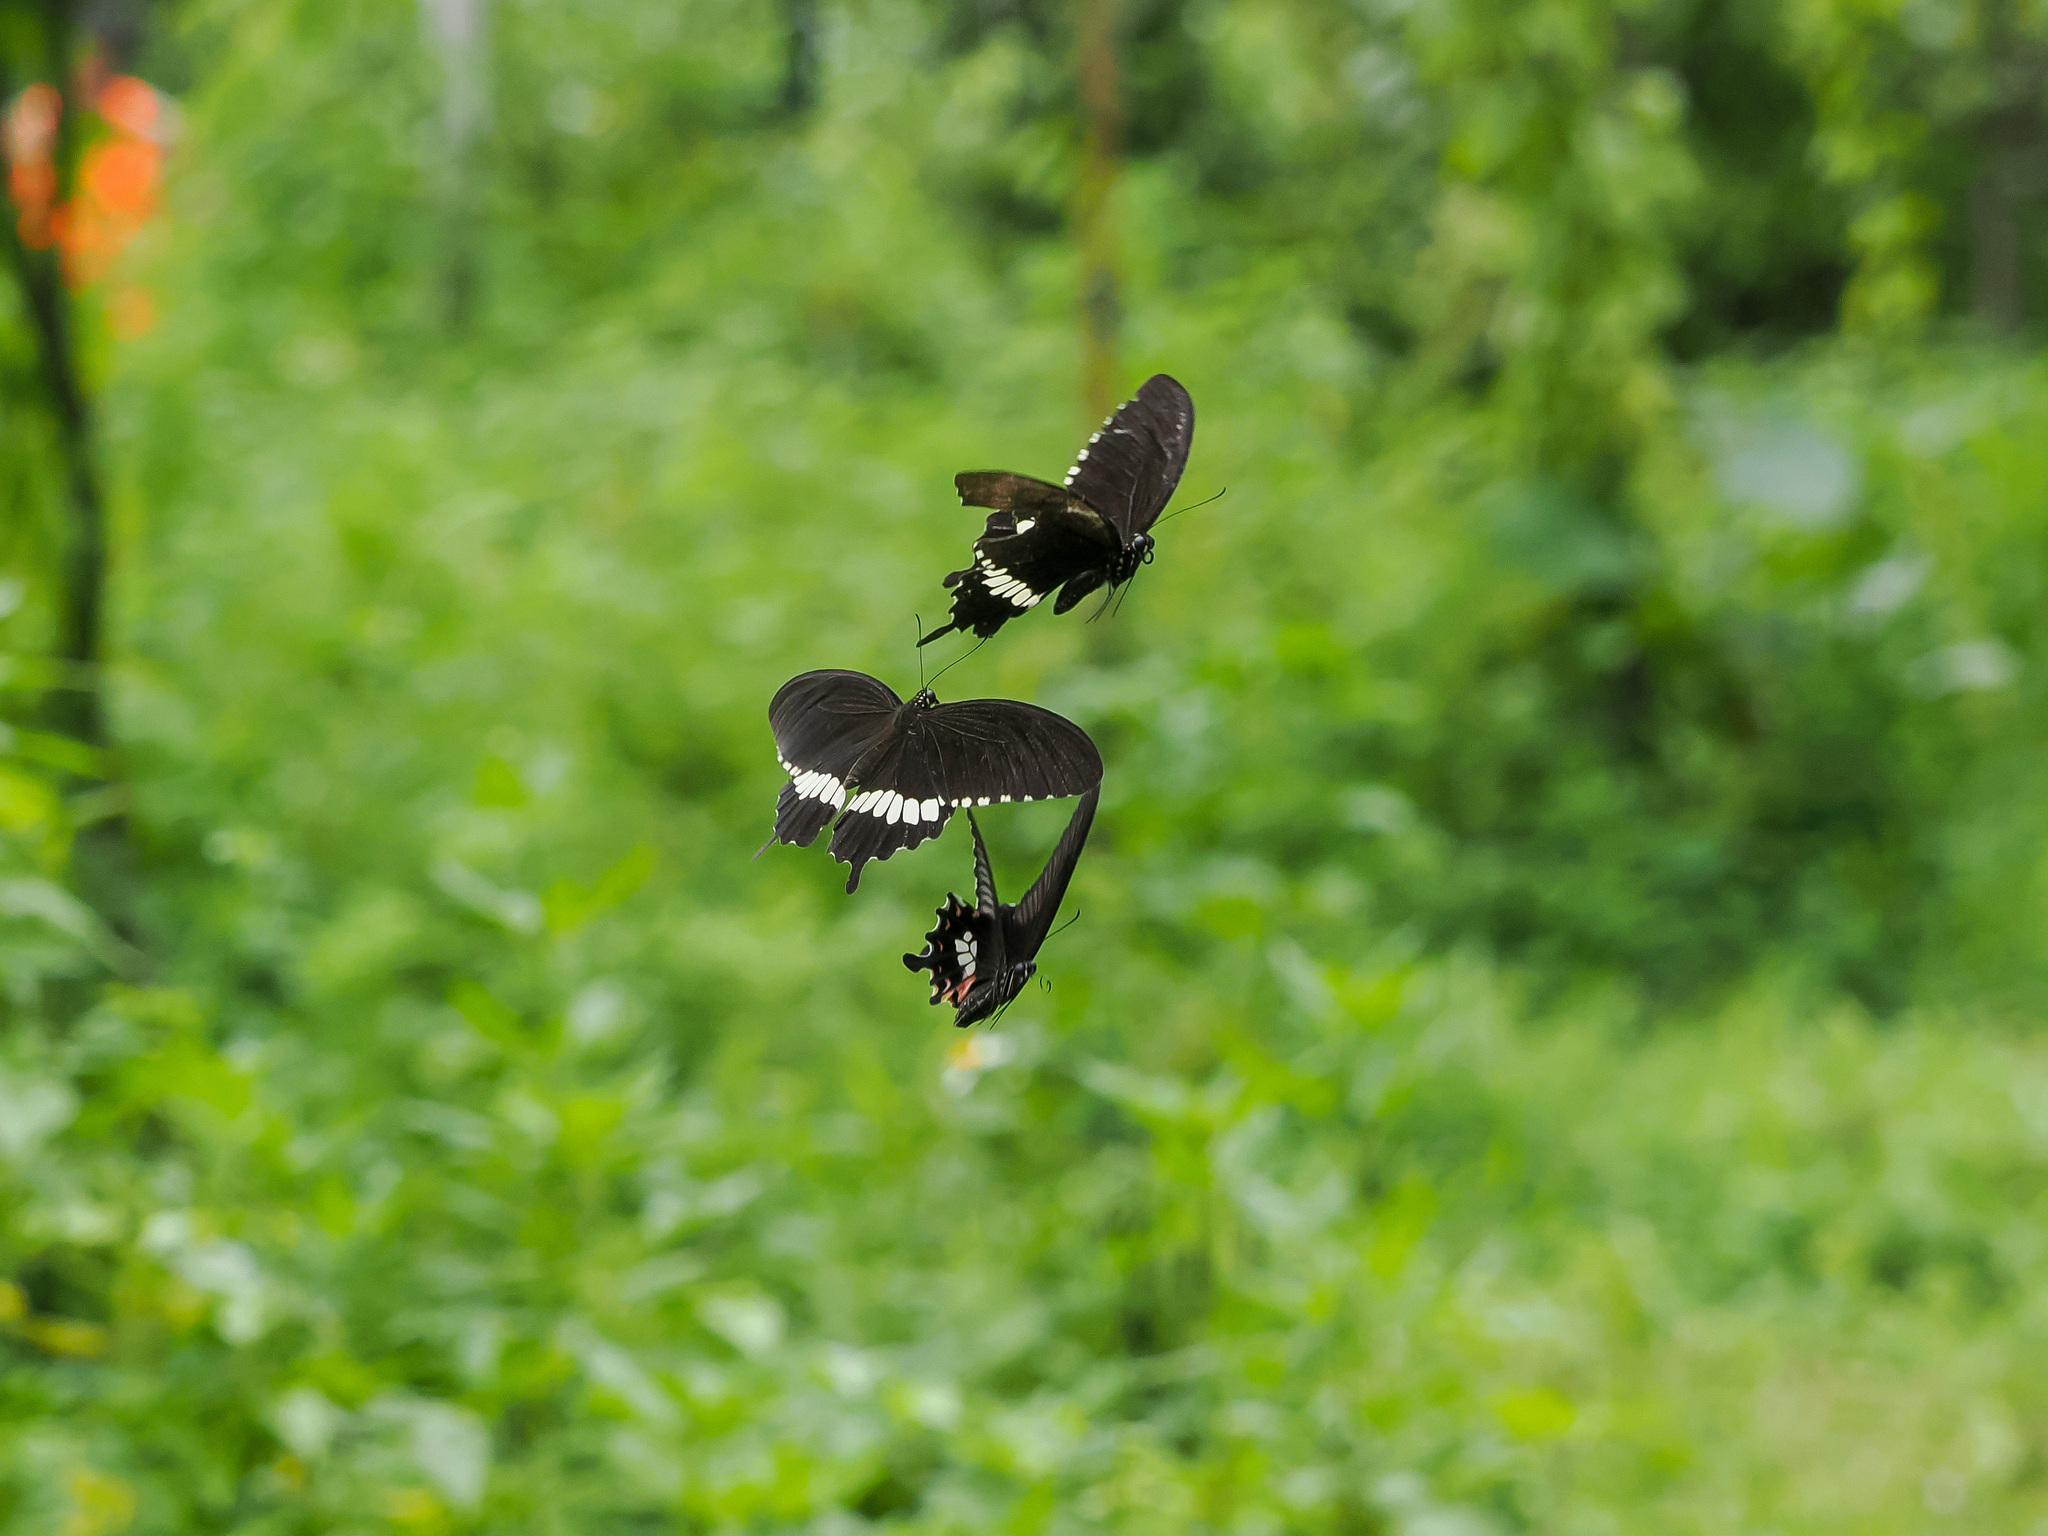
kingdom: Animalia
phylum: Arthropoda
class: Insecta
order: Lepidoptera
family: Papilionidae
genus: Papilio
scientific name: Papilio polytes
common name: Common mormon
